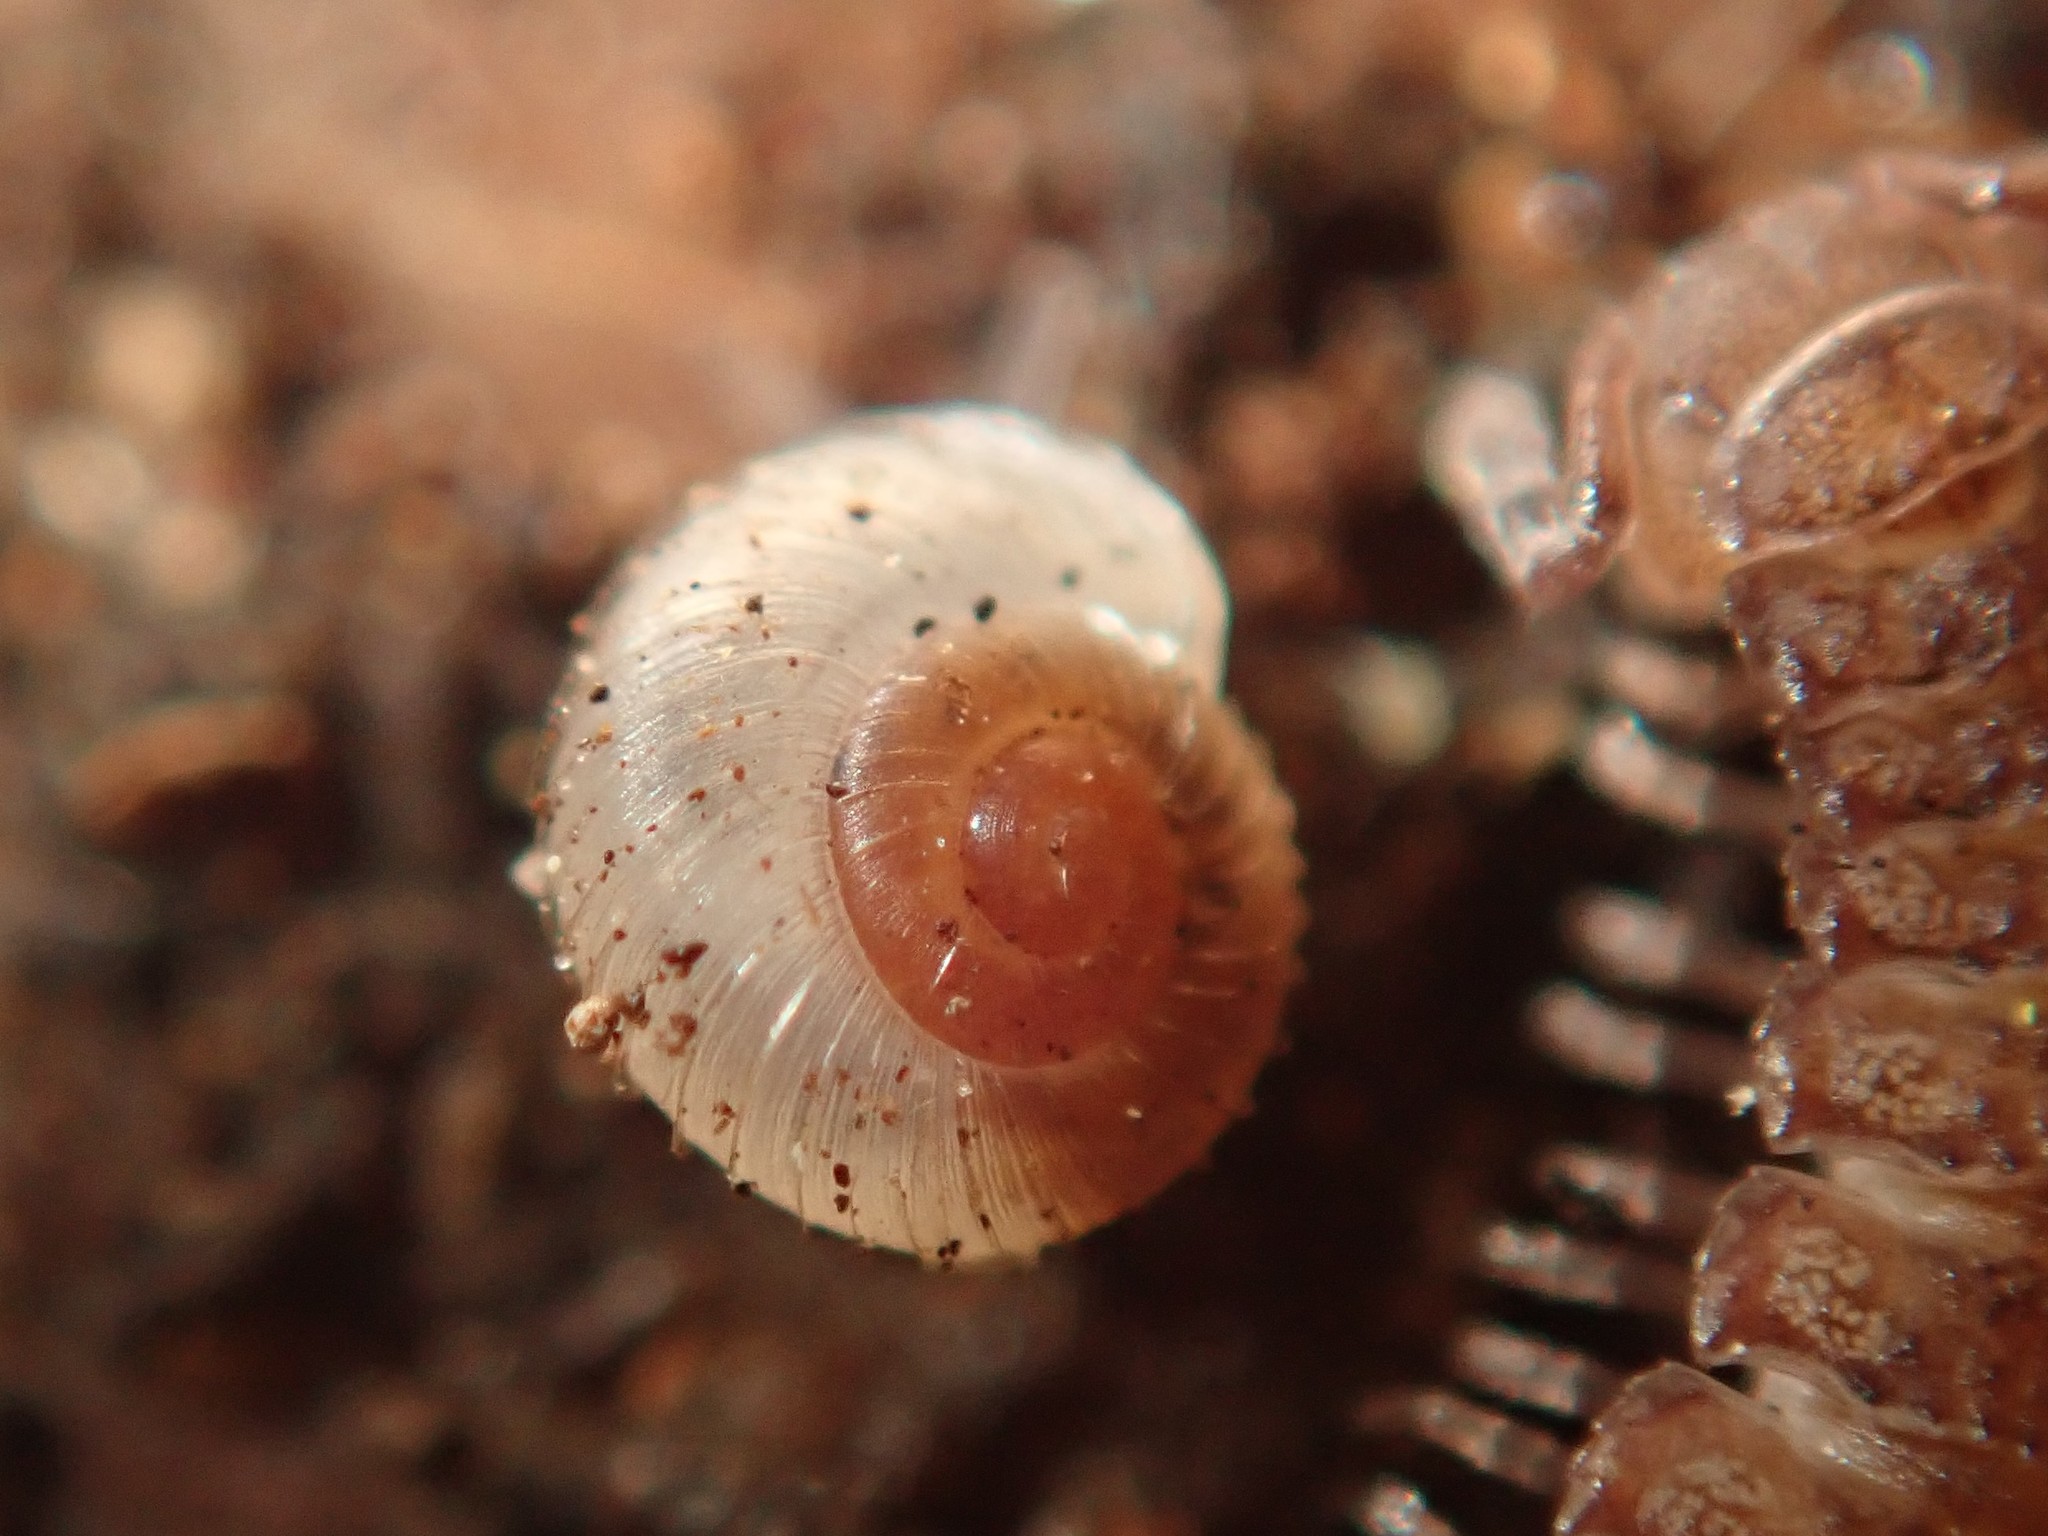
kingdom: Animalia
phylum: Mollusca
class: Gastropoda
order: Stylommatophora
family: Valloniidae
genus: Vallonia
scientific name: Vallonia costata
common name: Ribbed grass snail
